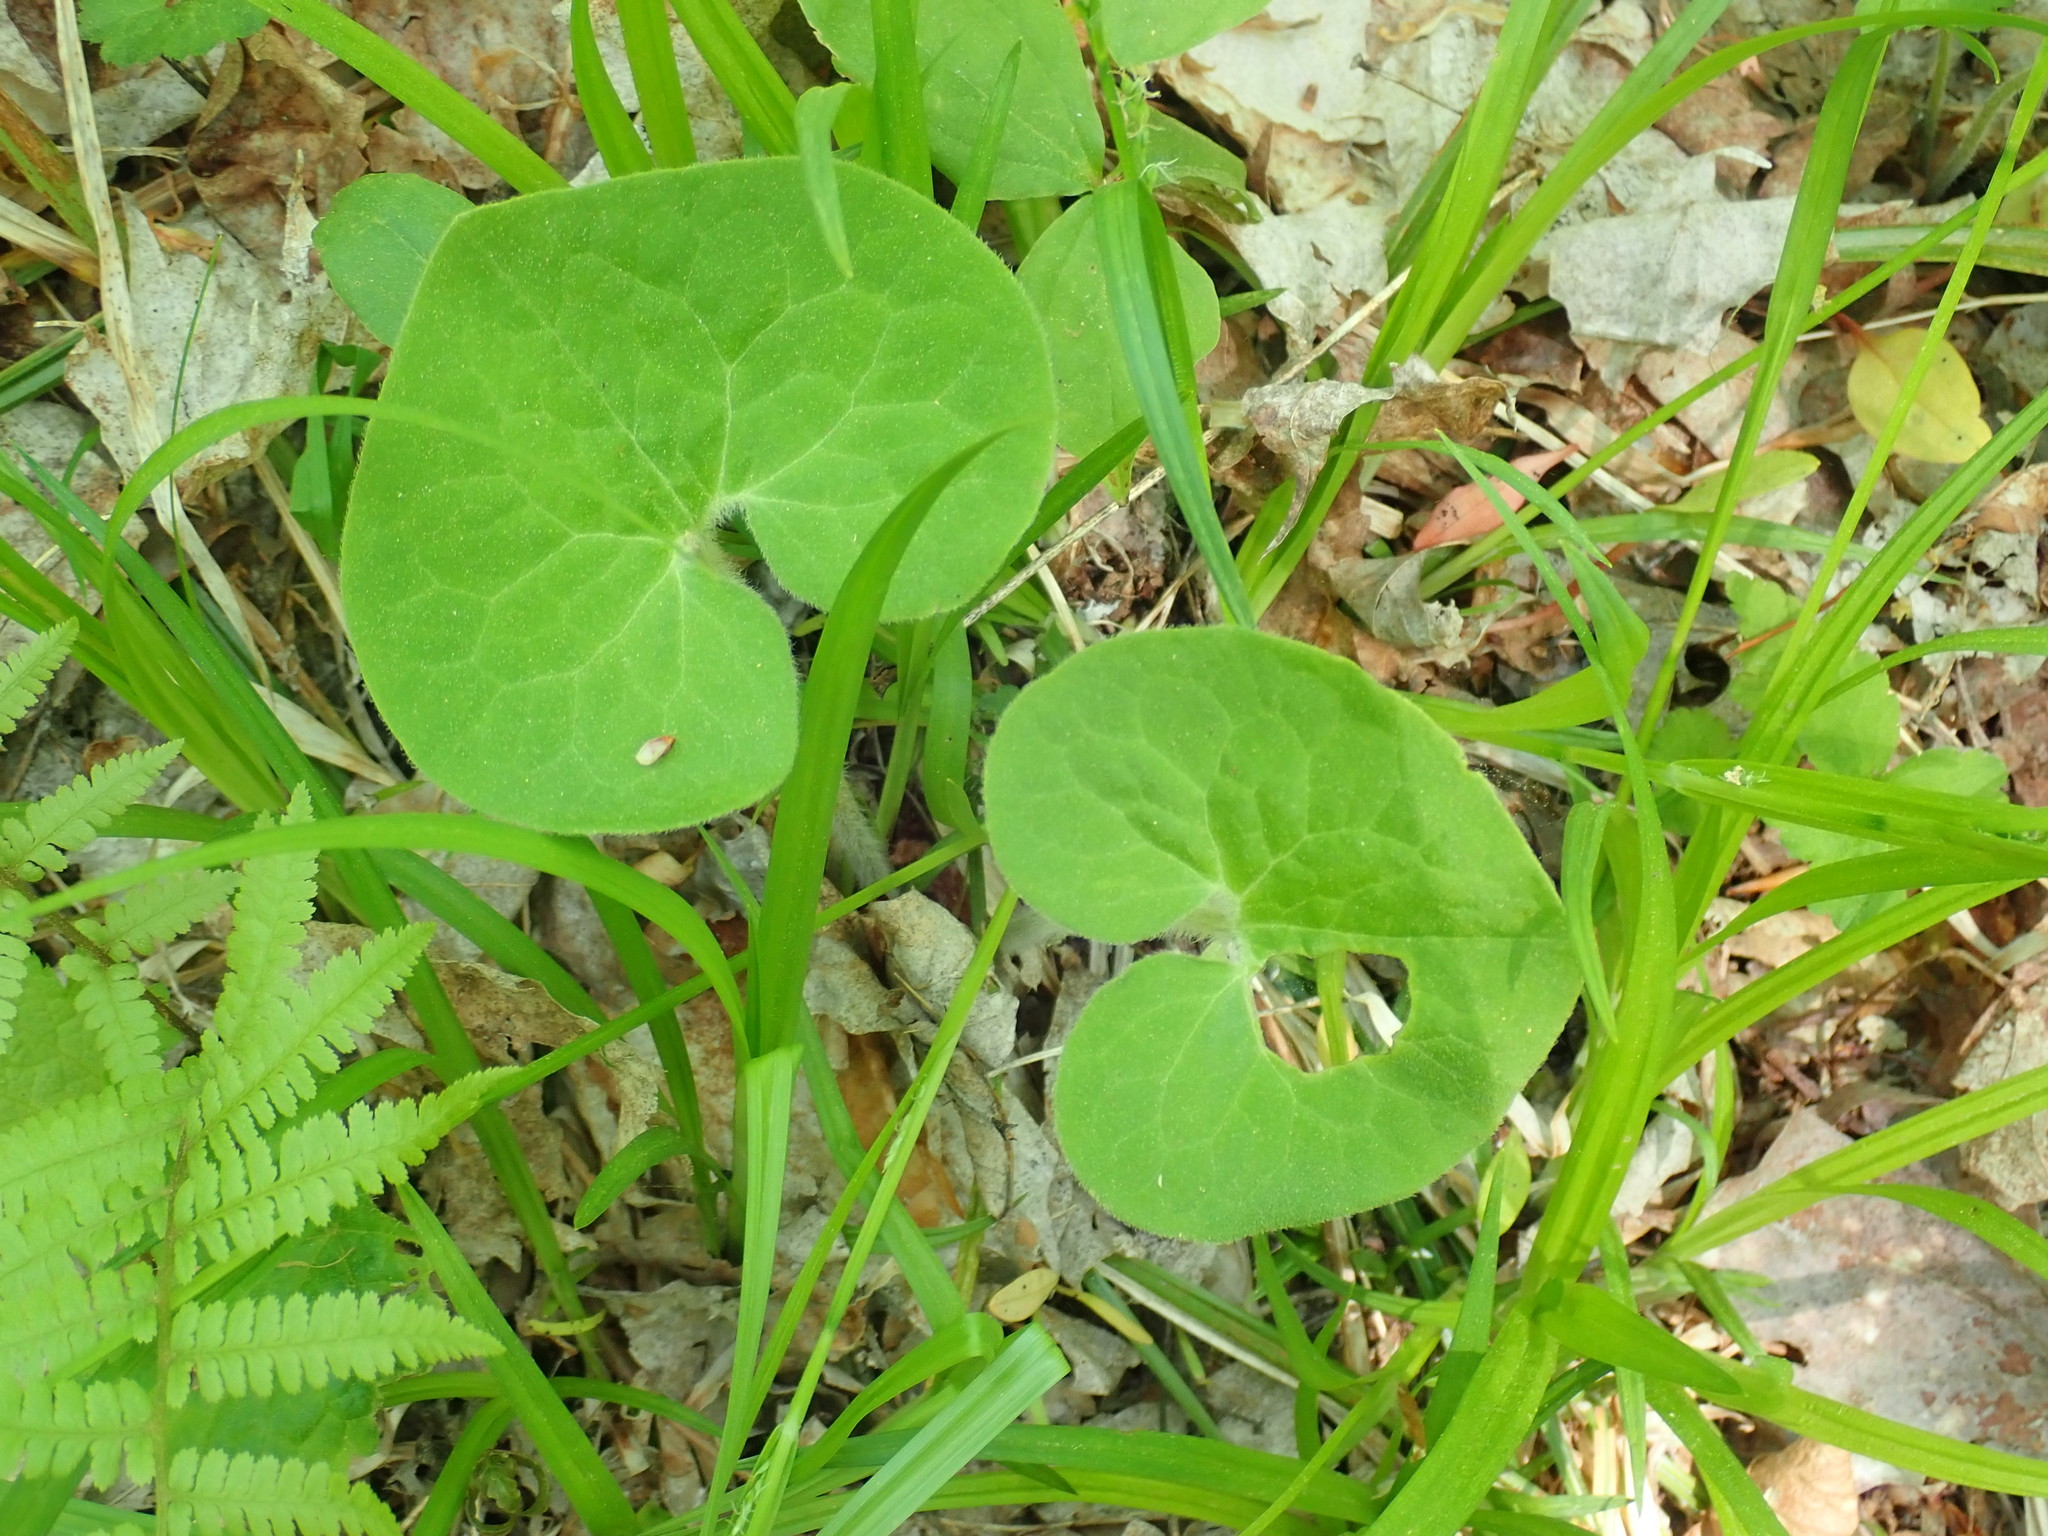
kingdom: Plantae
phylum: Tracheophyta
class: Magnoliopsida
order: Piperales
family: Aristolochiaceae
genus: Asarum
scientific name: Asarum canadense
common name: Wild ginger
